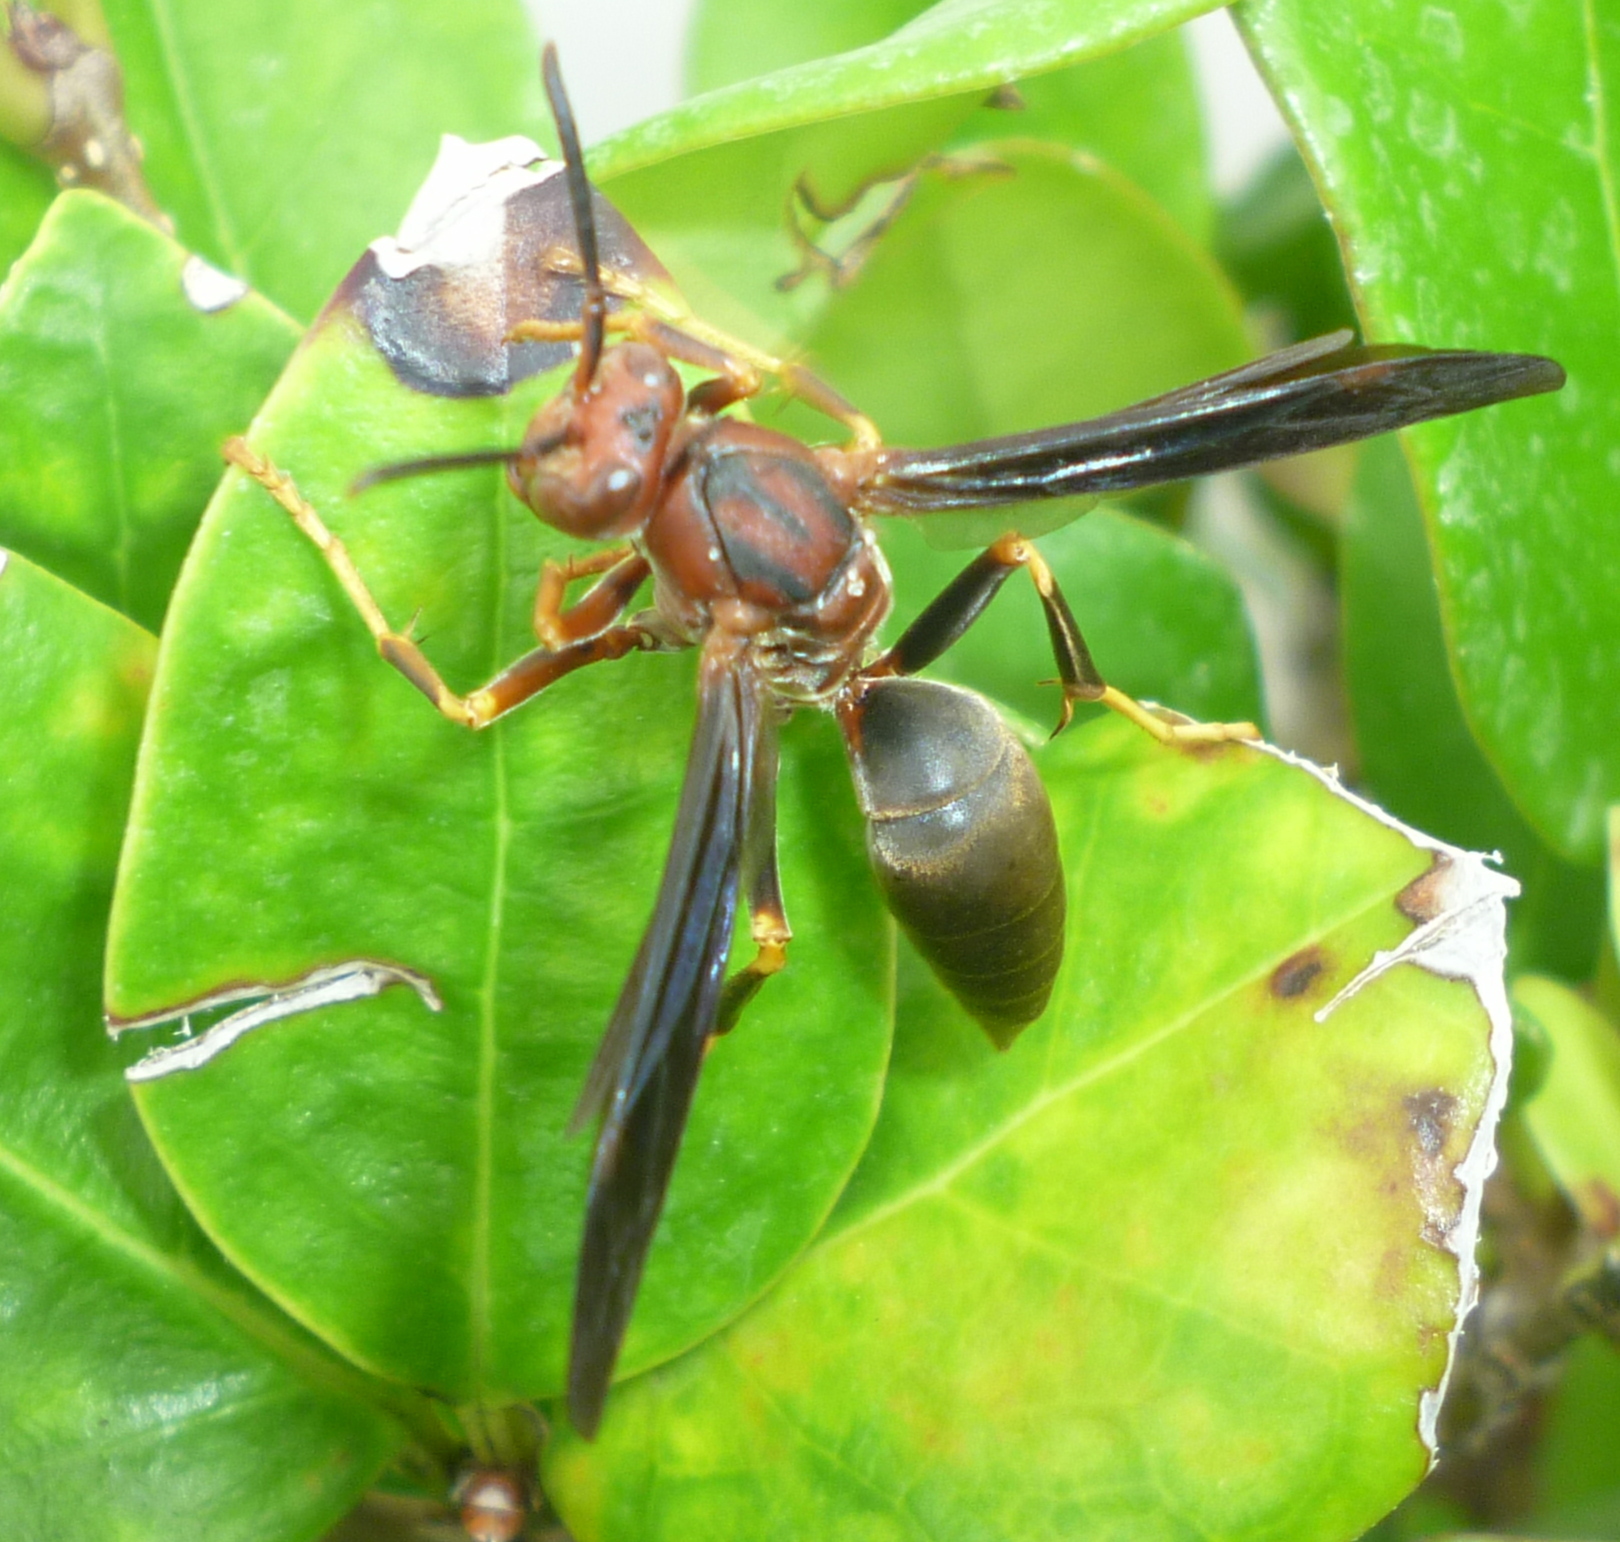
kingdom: Animalia
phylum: Arthropoda
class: Insecta
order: Hymenoptera
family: Eumenidae
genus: Polistes
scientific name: Polistes metricus
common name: Metric paper wasp
